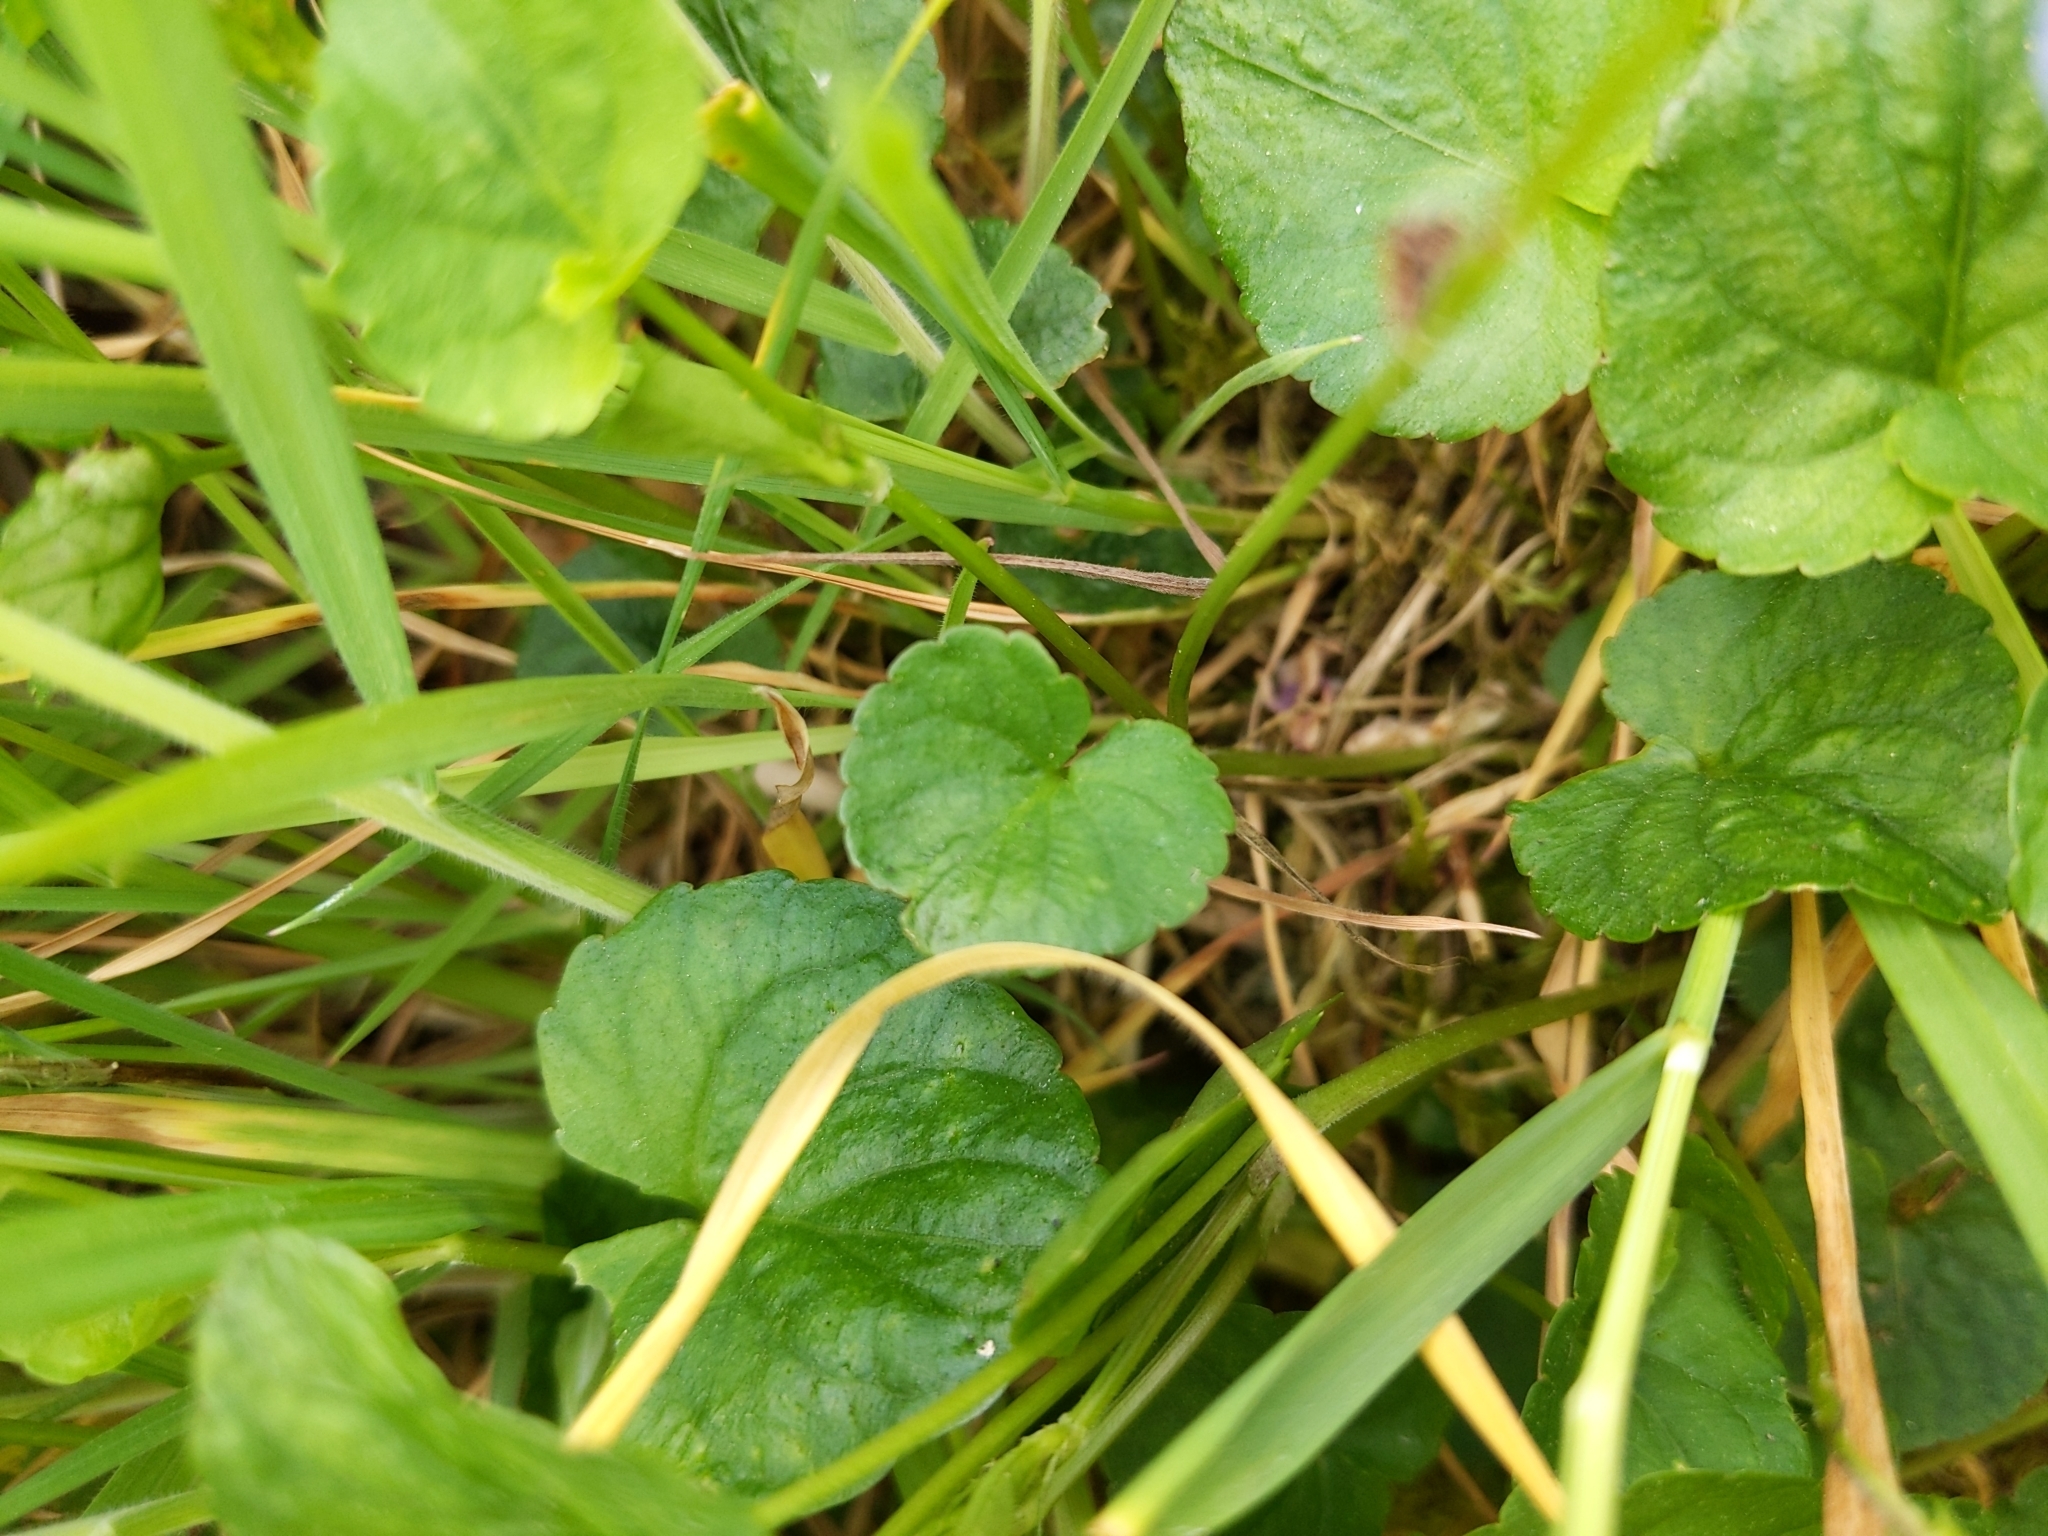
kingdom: Plantae
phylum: Tracheophyta
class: Magnoliopsida
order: Malpighiales
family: Violaceae
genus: Viola
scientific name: Viola palustris
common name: Marsh violet
